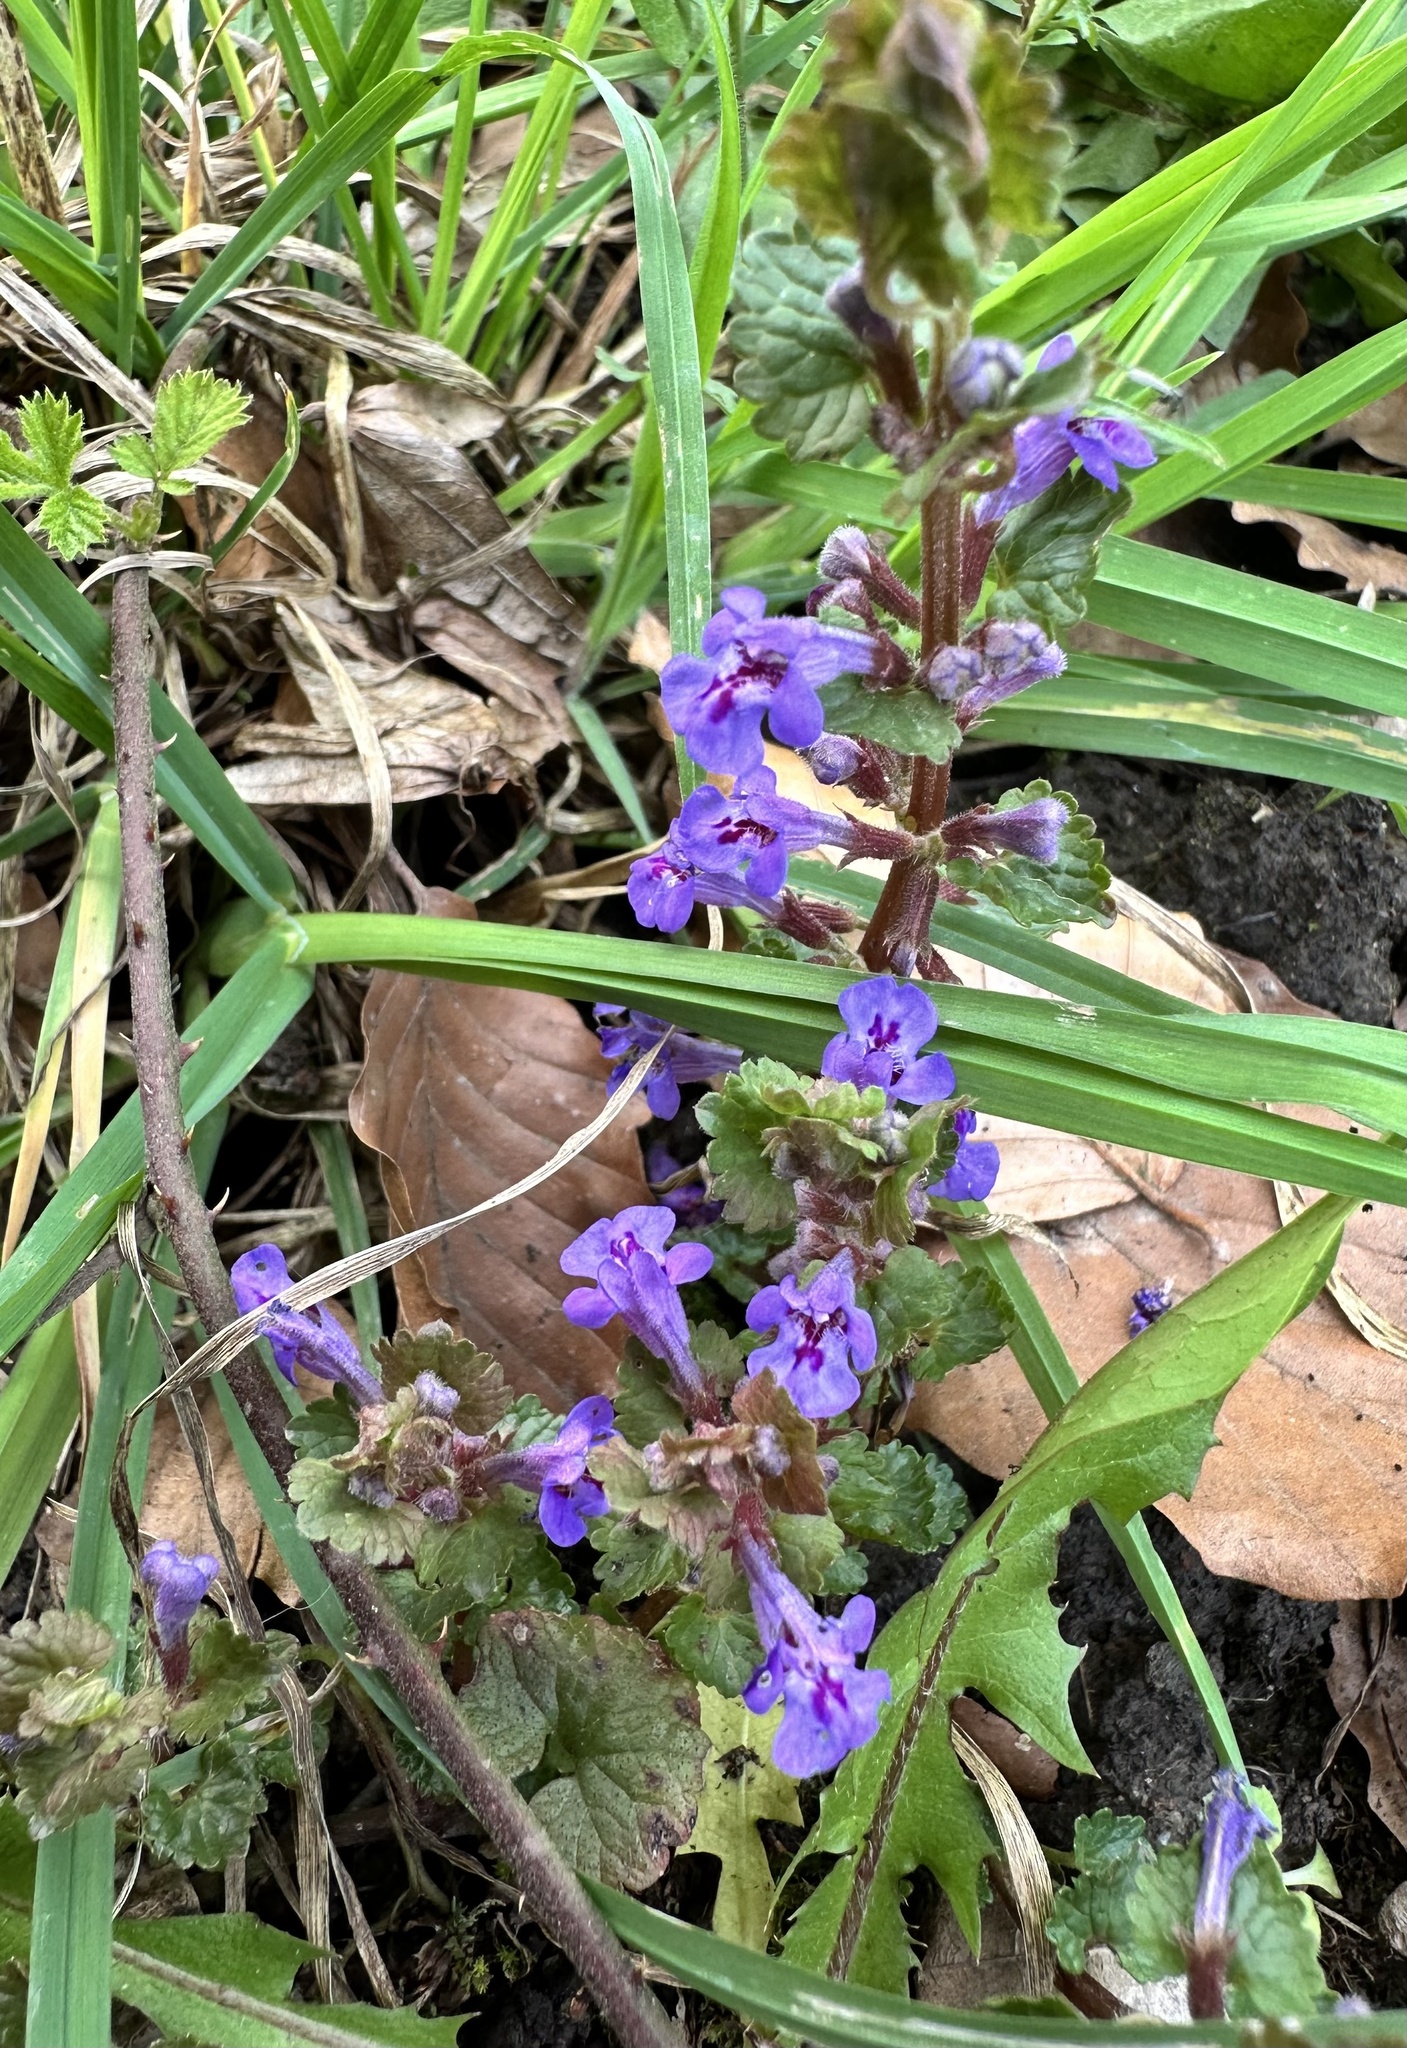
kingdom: Plantae
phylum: Tracheophyta
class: Magnoliopsida
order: Lamiales
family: Lamiaceae
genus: Glechoma
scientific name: Glechoma hederacea
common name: Ground ivy
